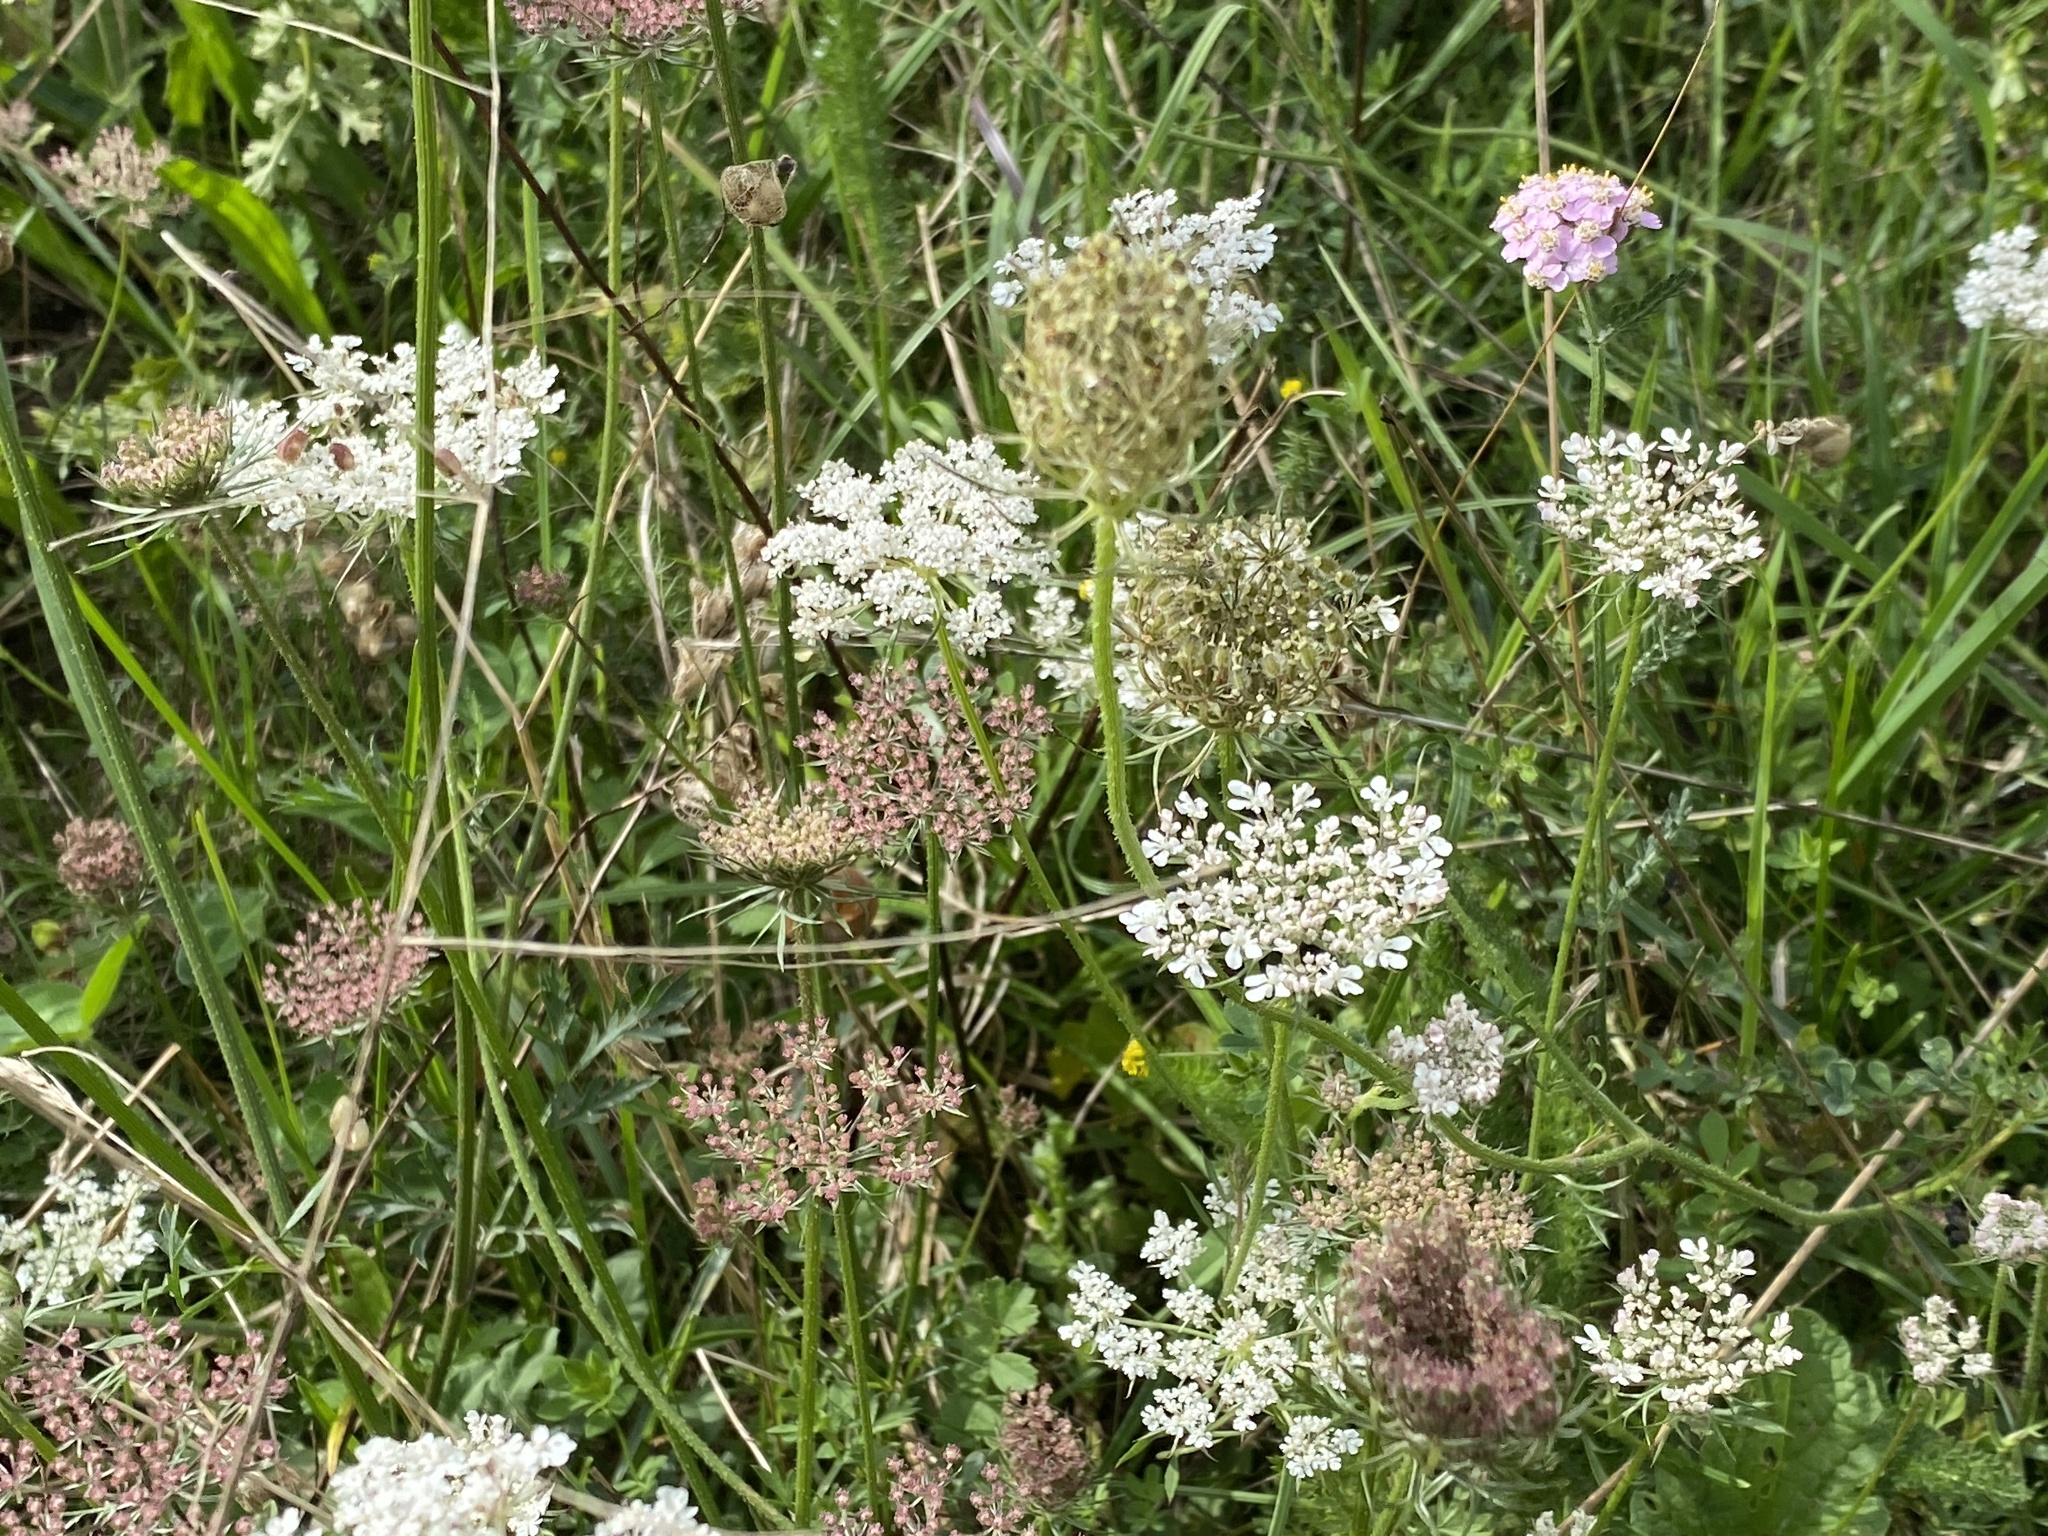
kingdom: Plantae
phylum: Tracheophyta
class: Magnoliopsida
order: Apiales
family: Apiaceae
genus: Daucus
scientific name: Daucus carota
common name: Wild carrot
